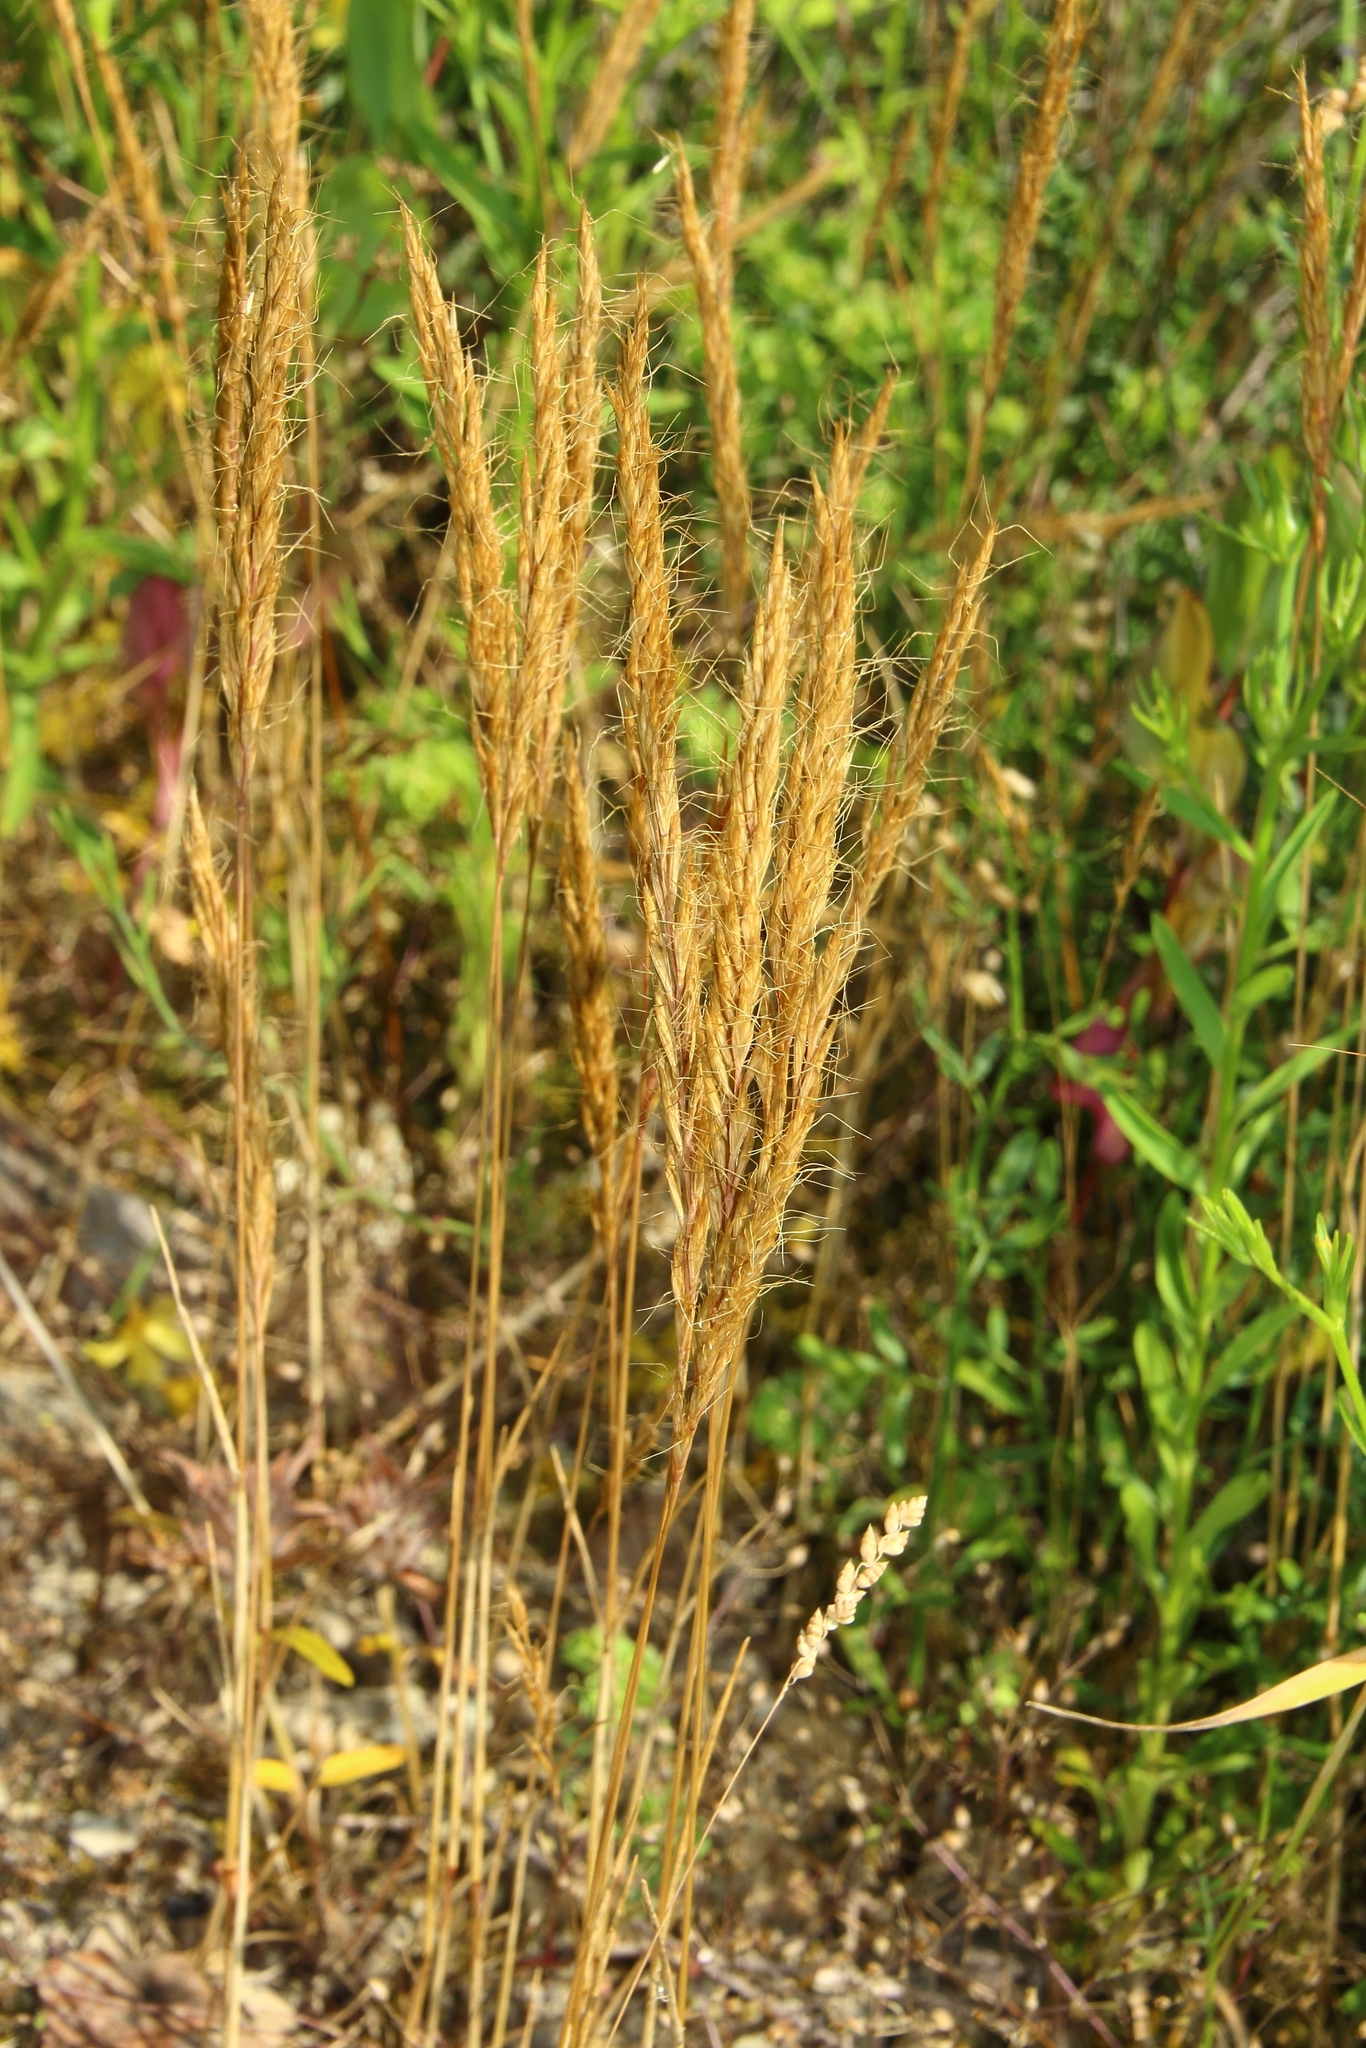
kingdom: Plantae
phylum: Tracheophyta
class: Liliopsida
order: Poales
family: Poaceae
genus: Ventenata
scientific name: Ventenata macra
